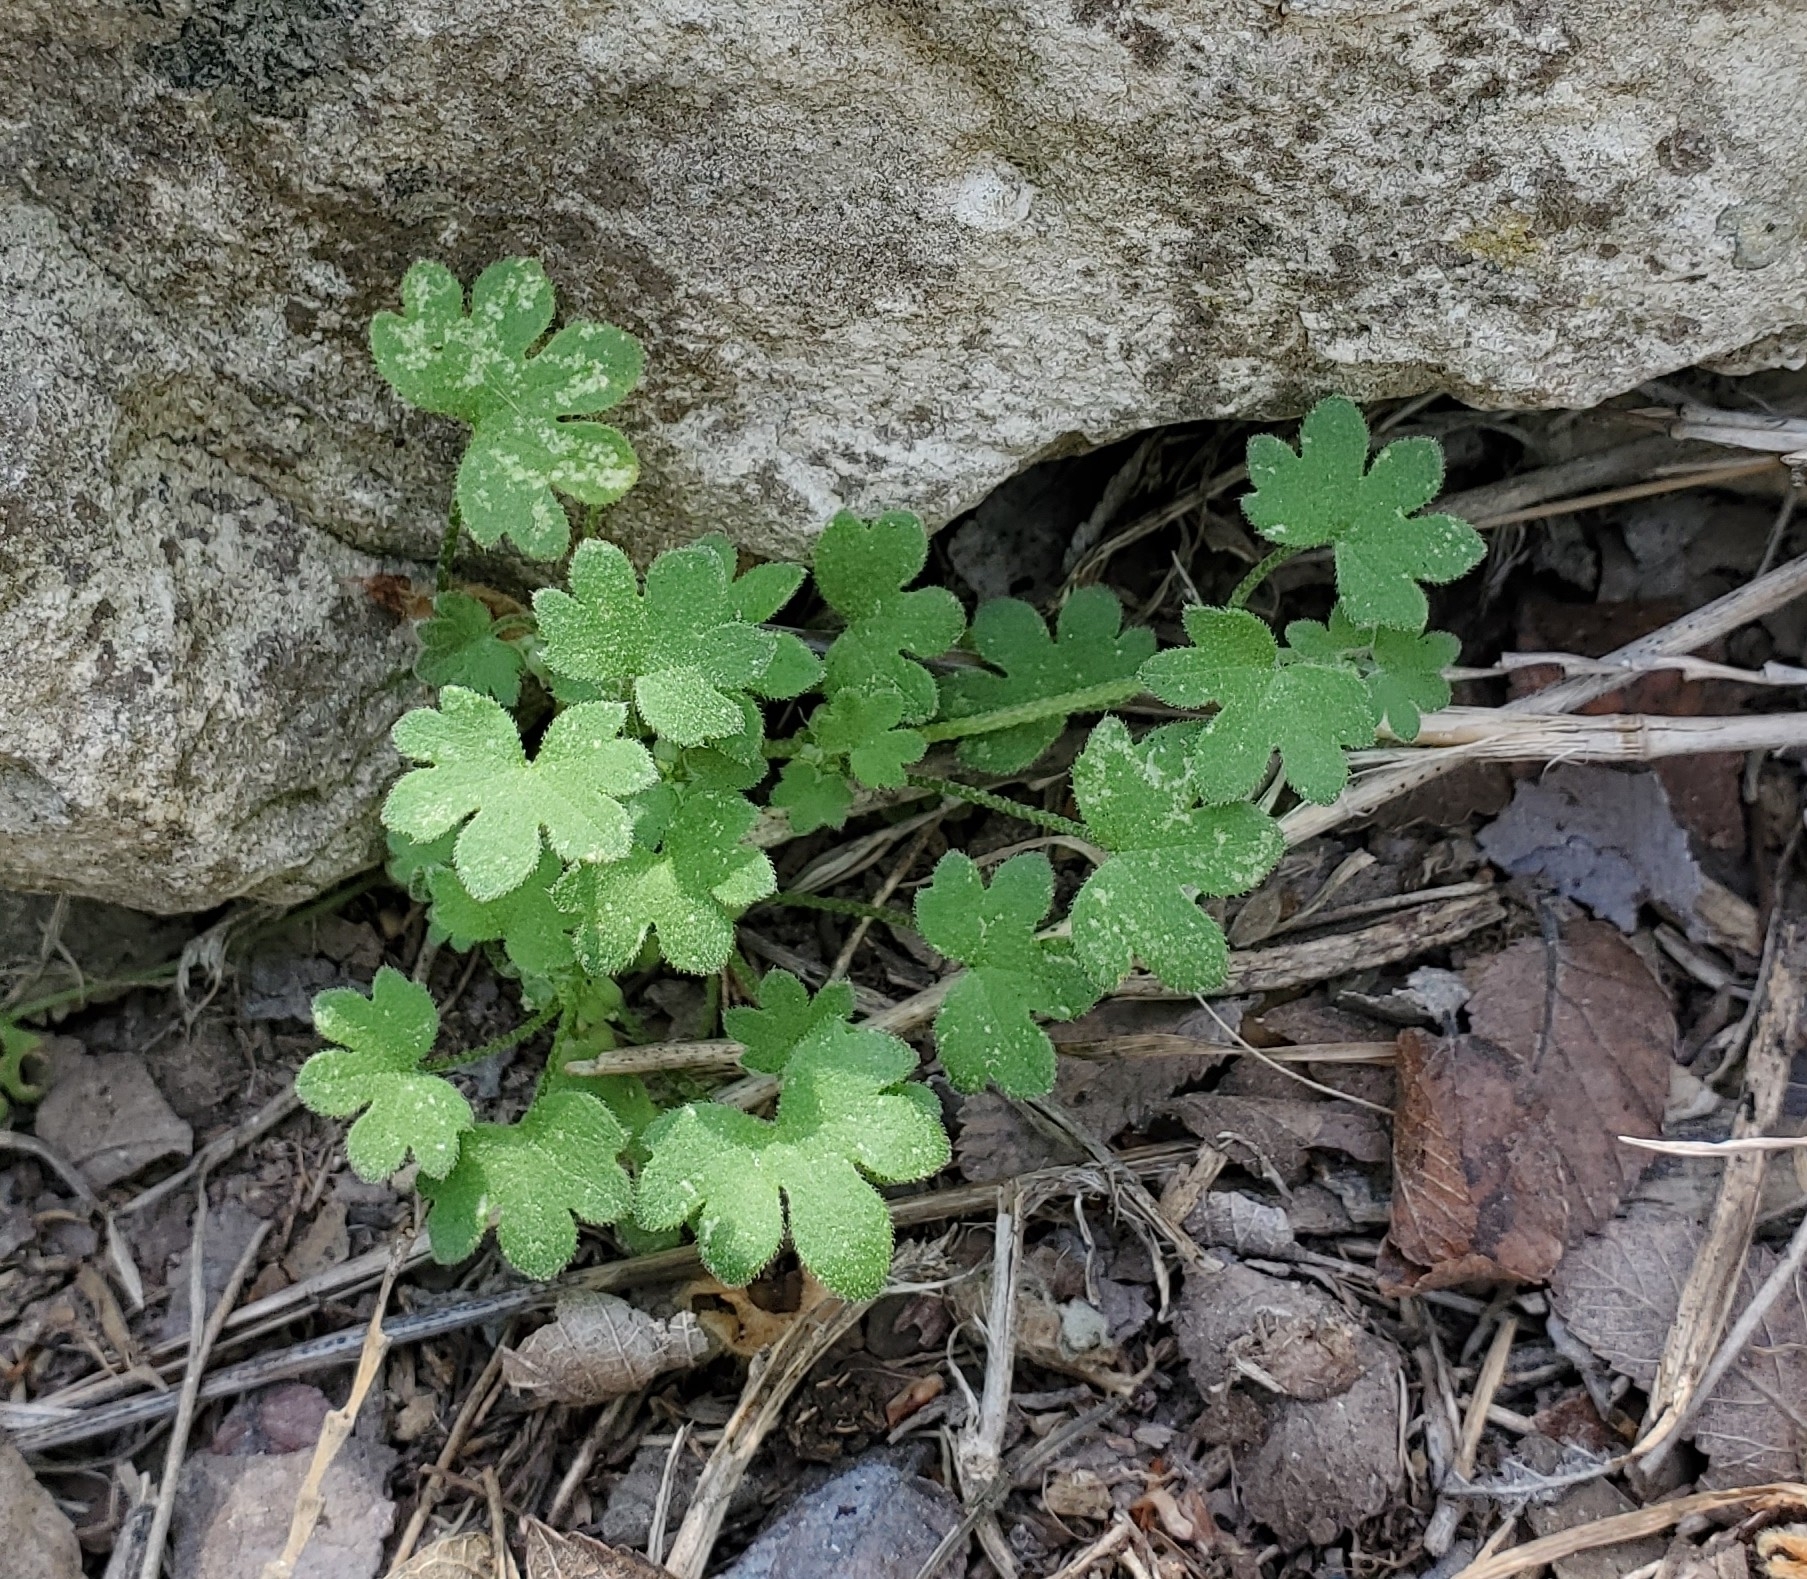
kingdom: Plantae
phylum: Tracheophyta
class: Magnoliopsida
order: Apiales
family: Apiaceae
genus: Bowlesia
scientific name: Bowlesia incana
